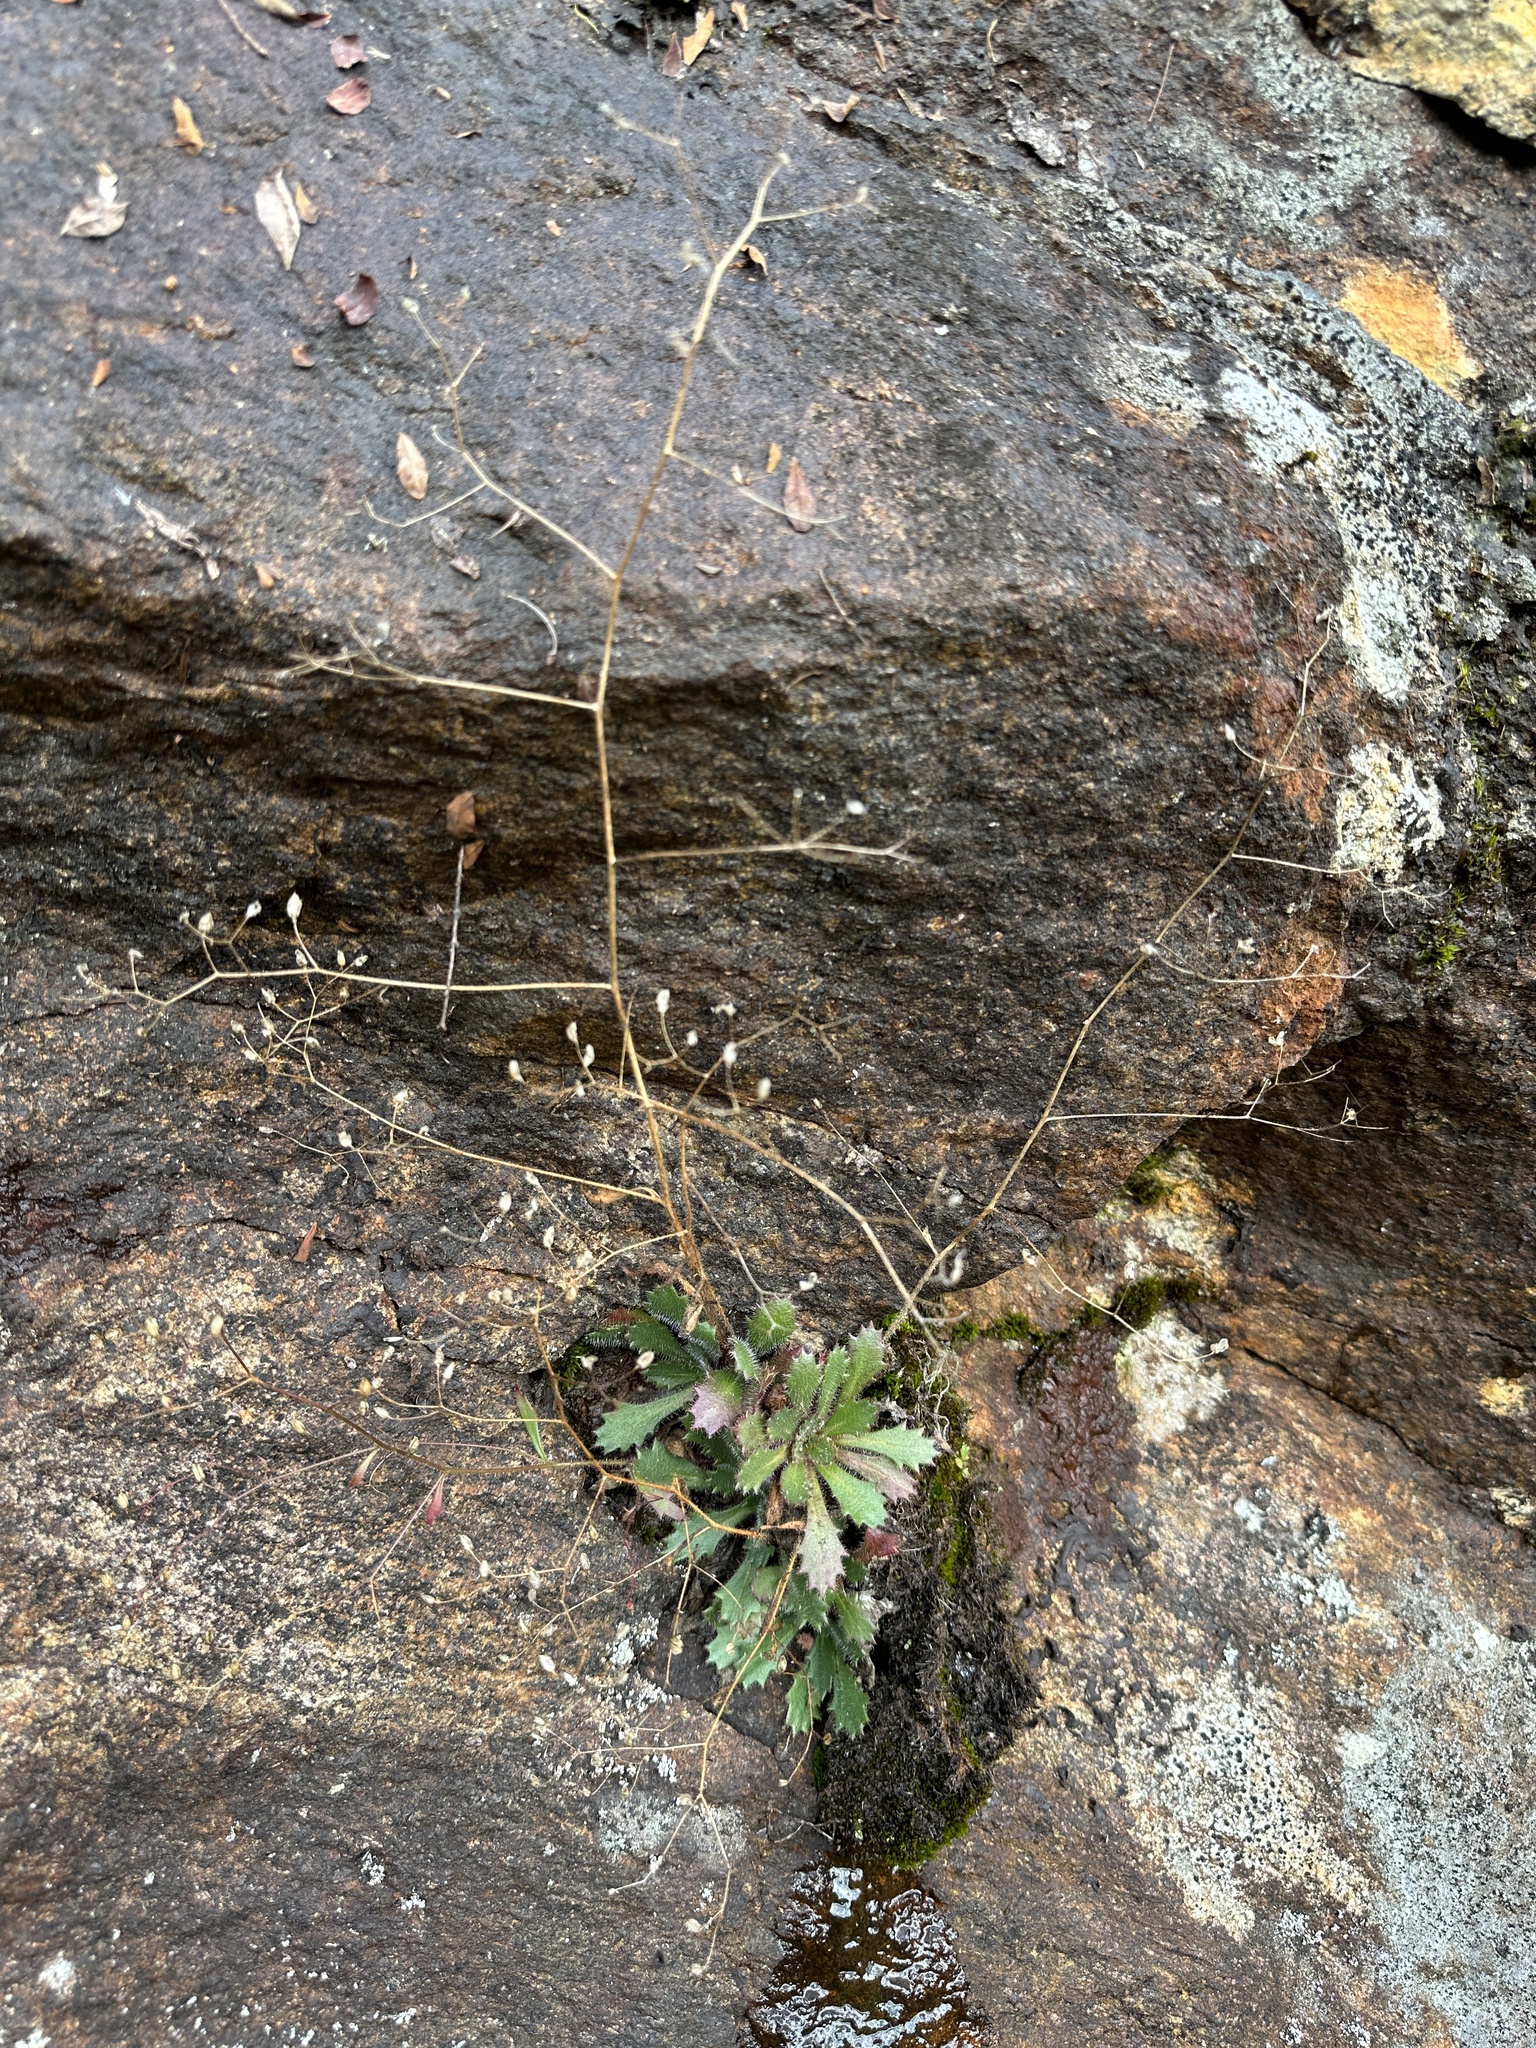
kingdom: Plantae
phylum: Tracheophyta
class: Magnoliopsida
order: Saxifragales
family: Saxifragaceae
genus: Micranthes
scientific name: Micranthes petiolaris
